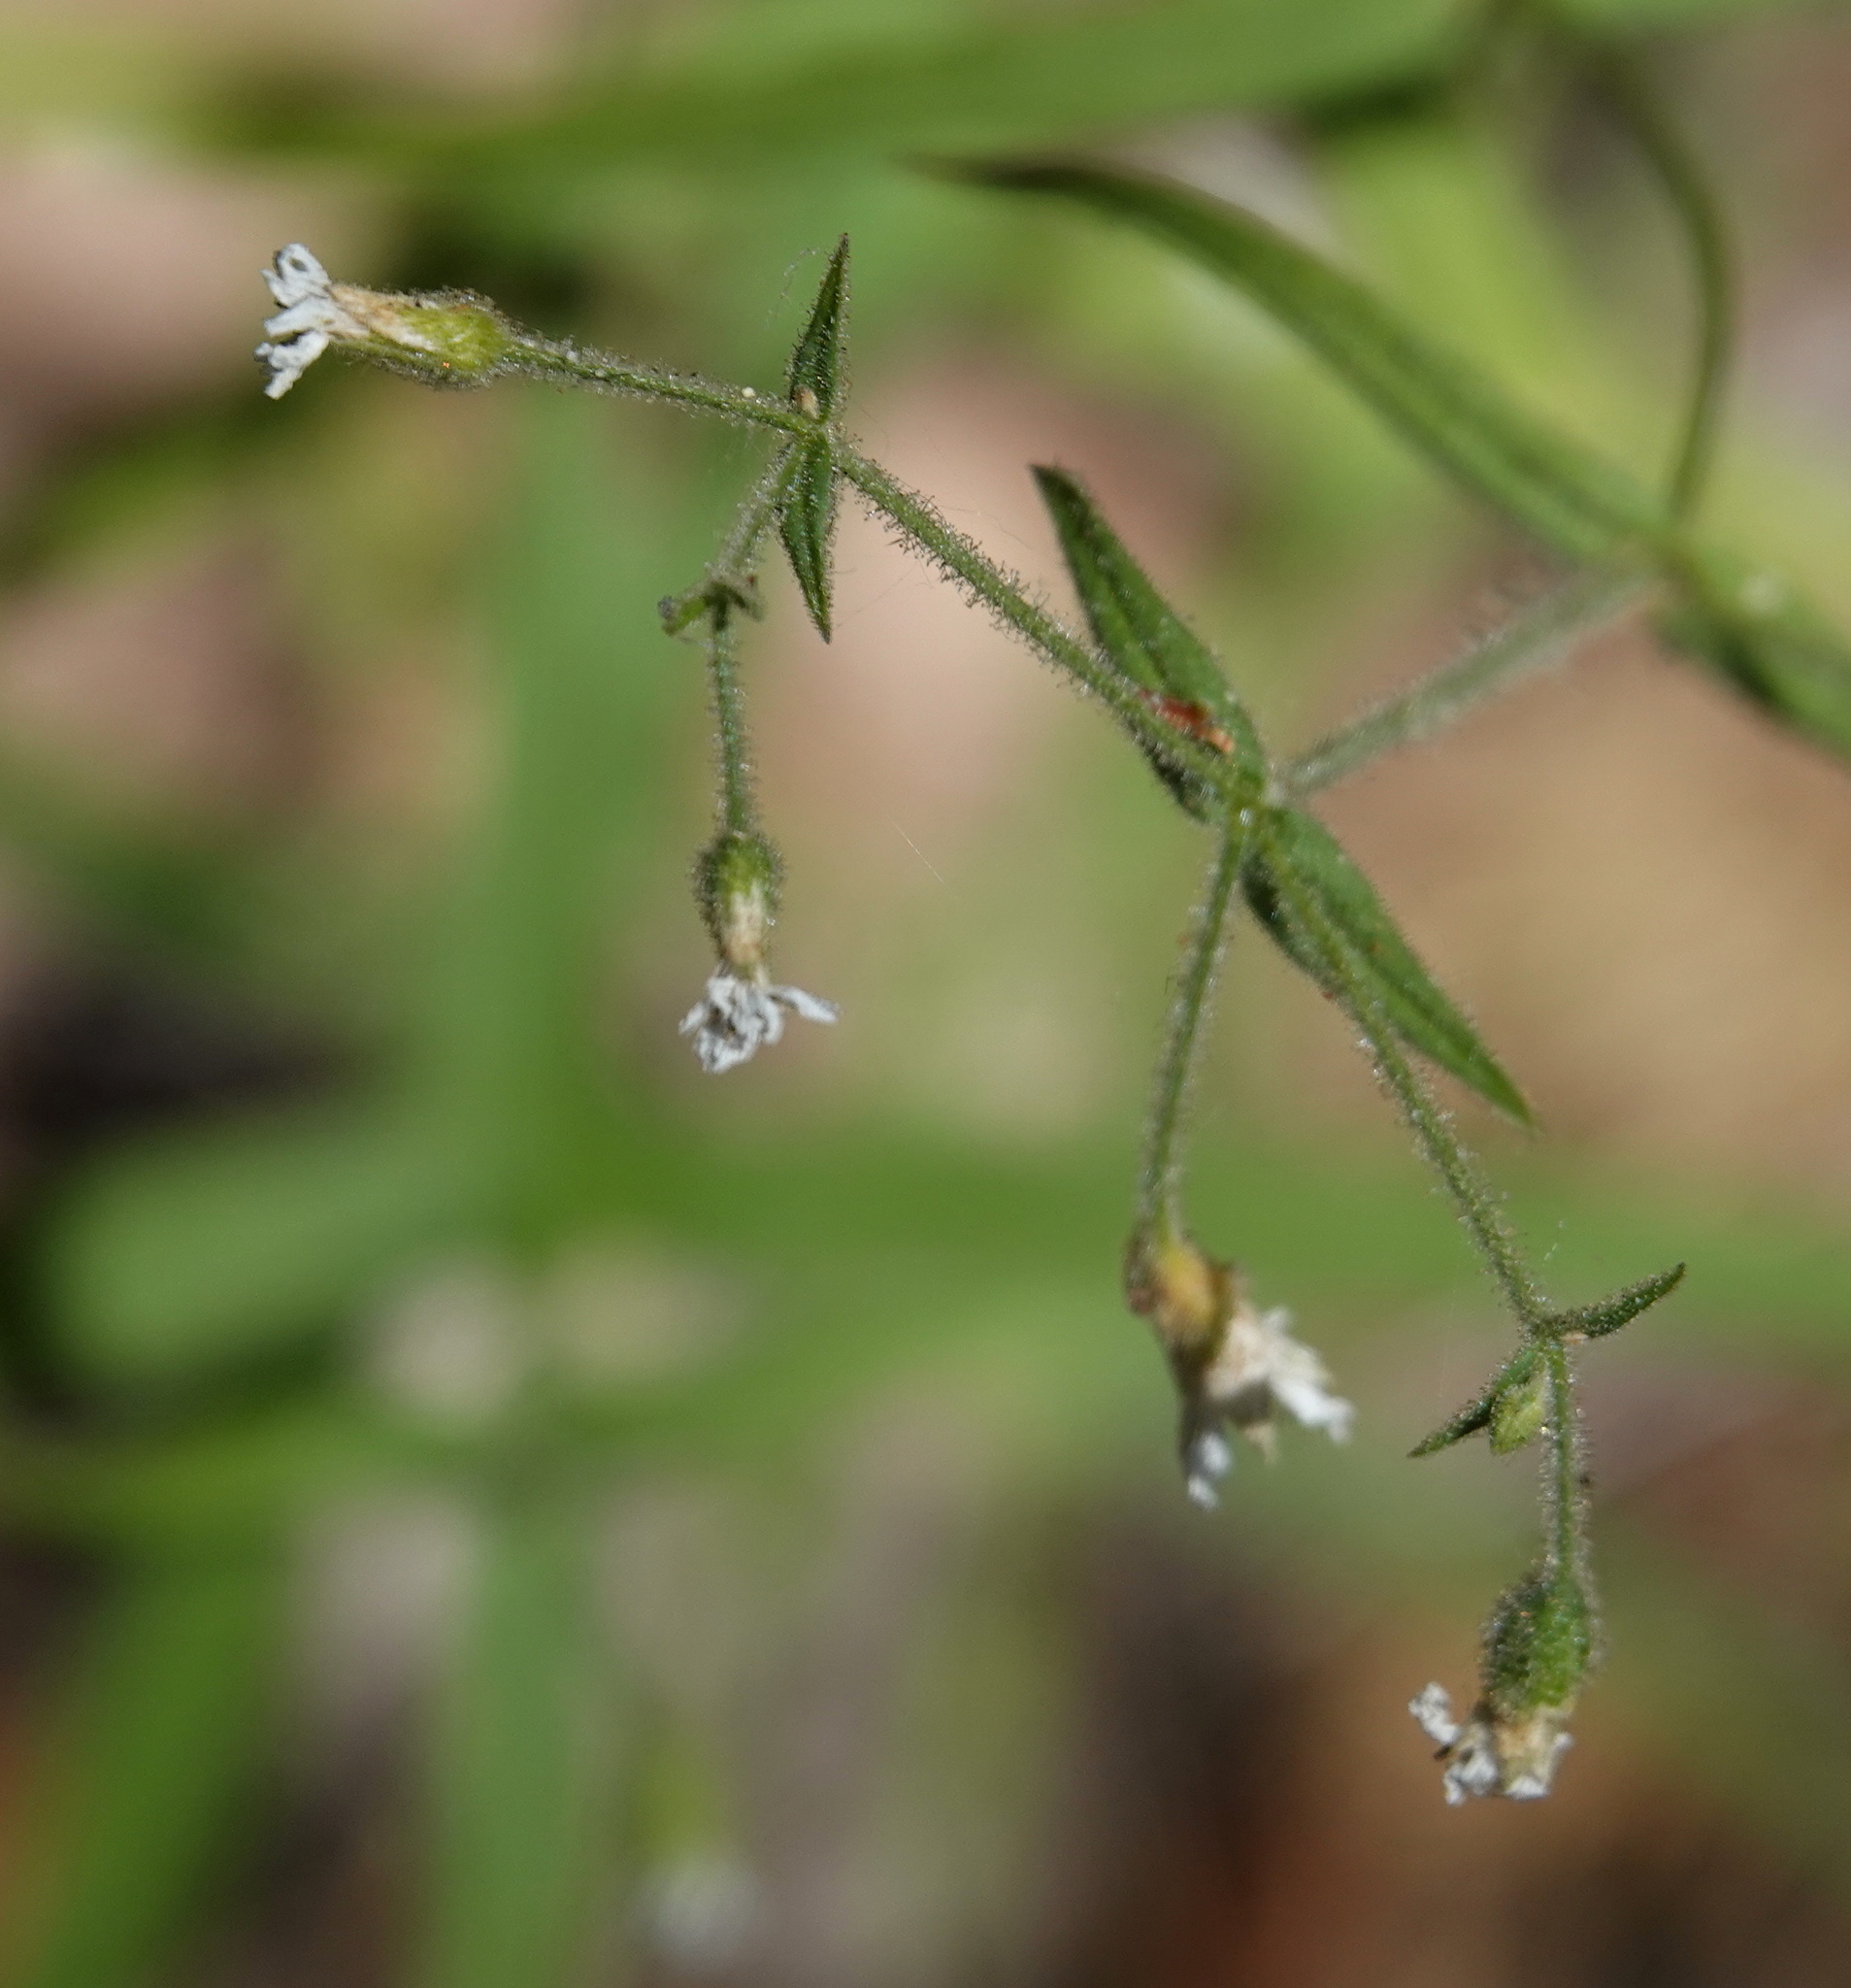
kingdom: Plantae
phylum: Tracheophyta
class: Magnoliopsida
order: Caryophyllales
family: Caryophyllaceae
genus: Schizotechium
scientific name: Schizotechium jamesianum
